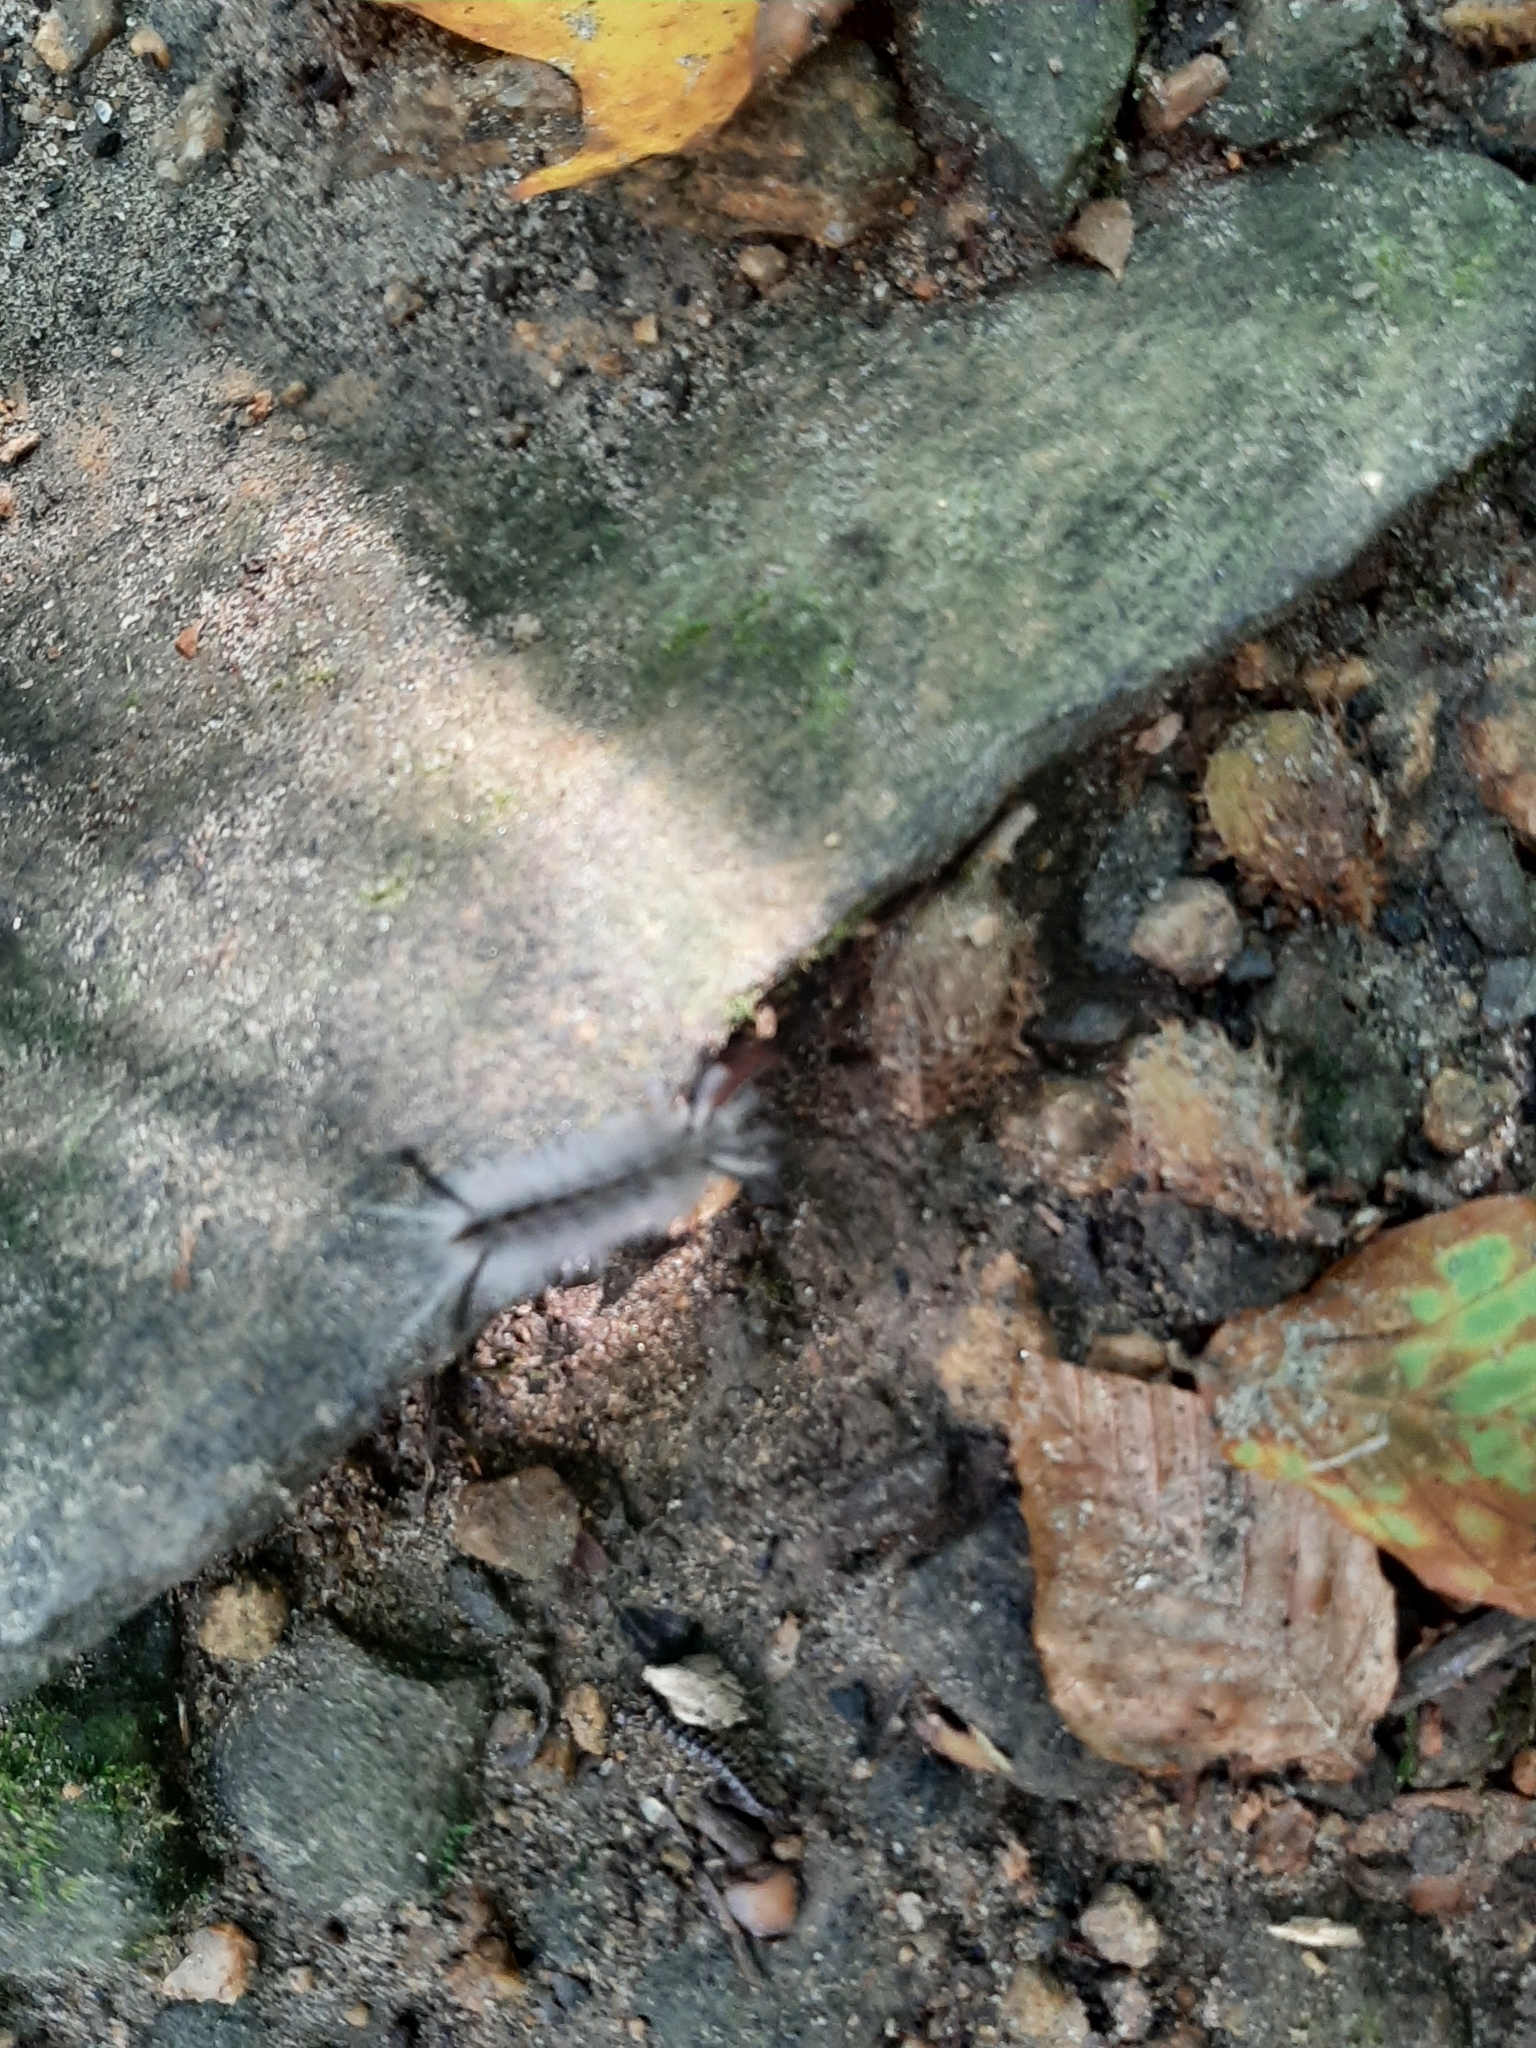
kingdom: Animalia
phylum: Arthropoda
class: Insecta
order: Lepidoptera
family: Erebidae
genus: Halysidota
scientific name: Halysidota tessellaris
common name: Banded tussock moth
